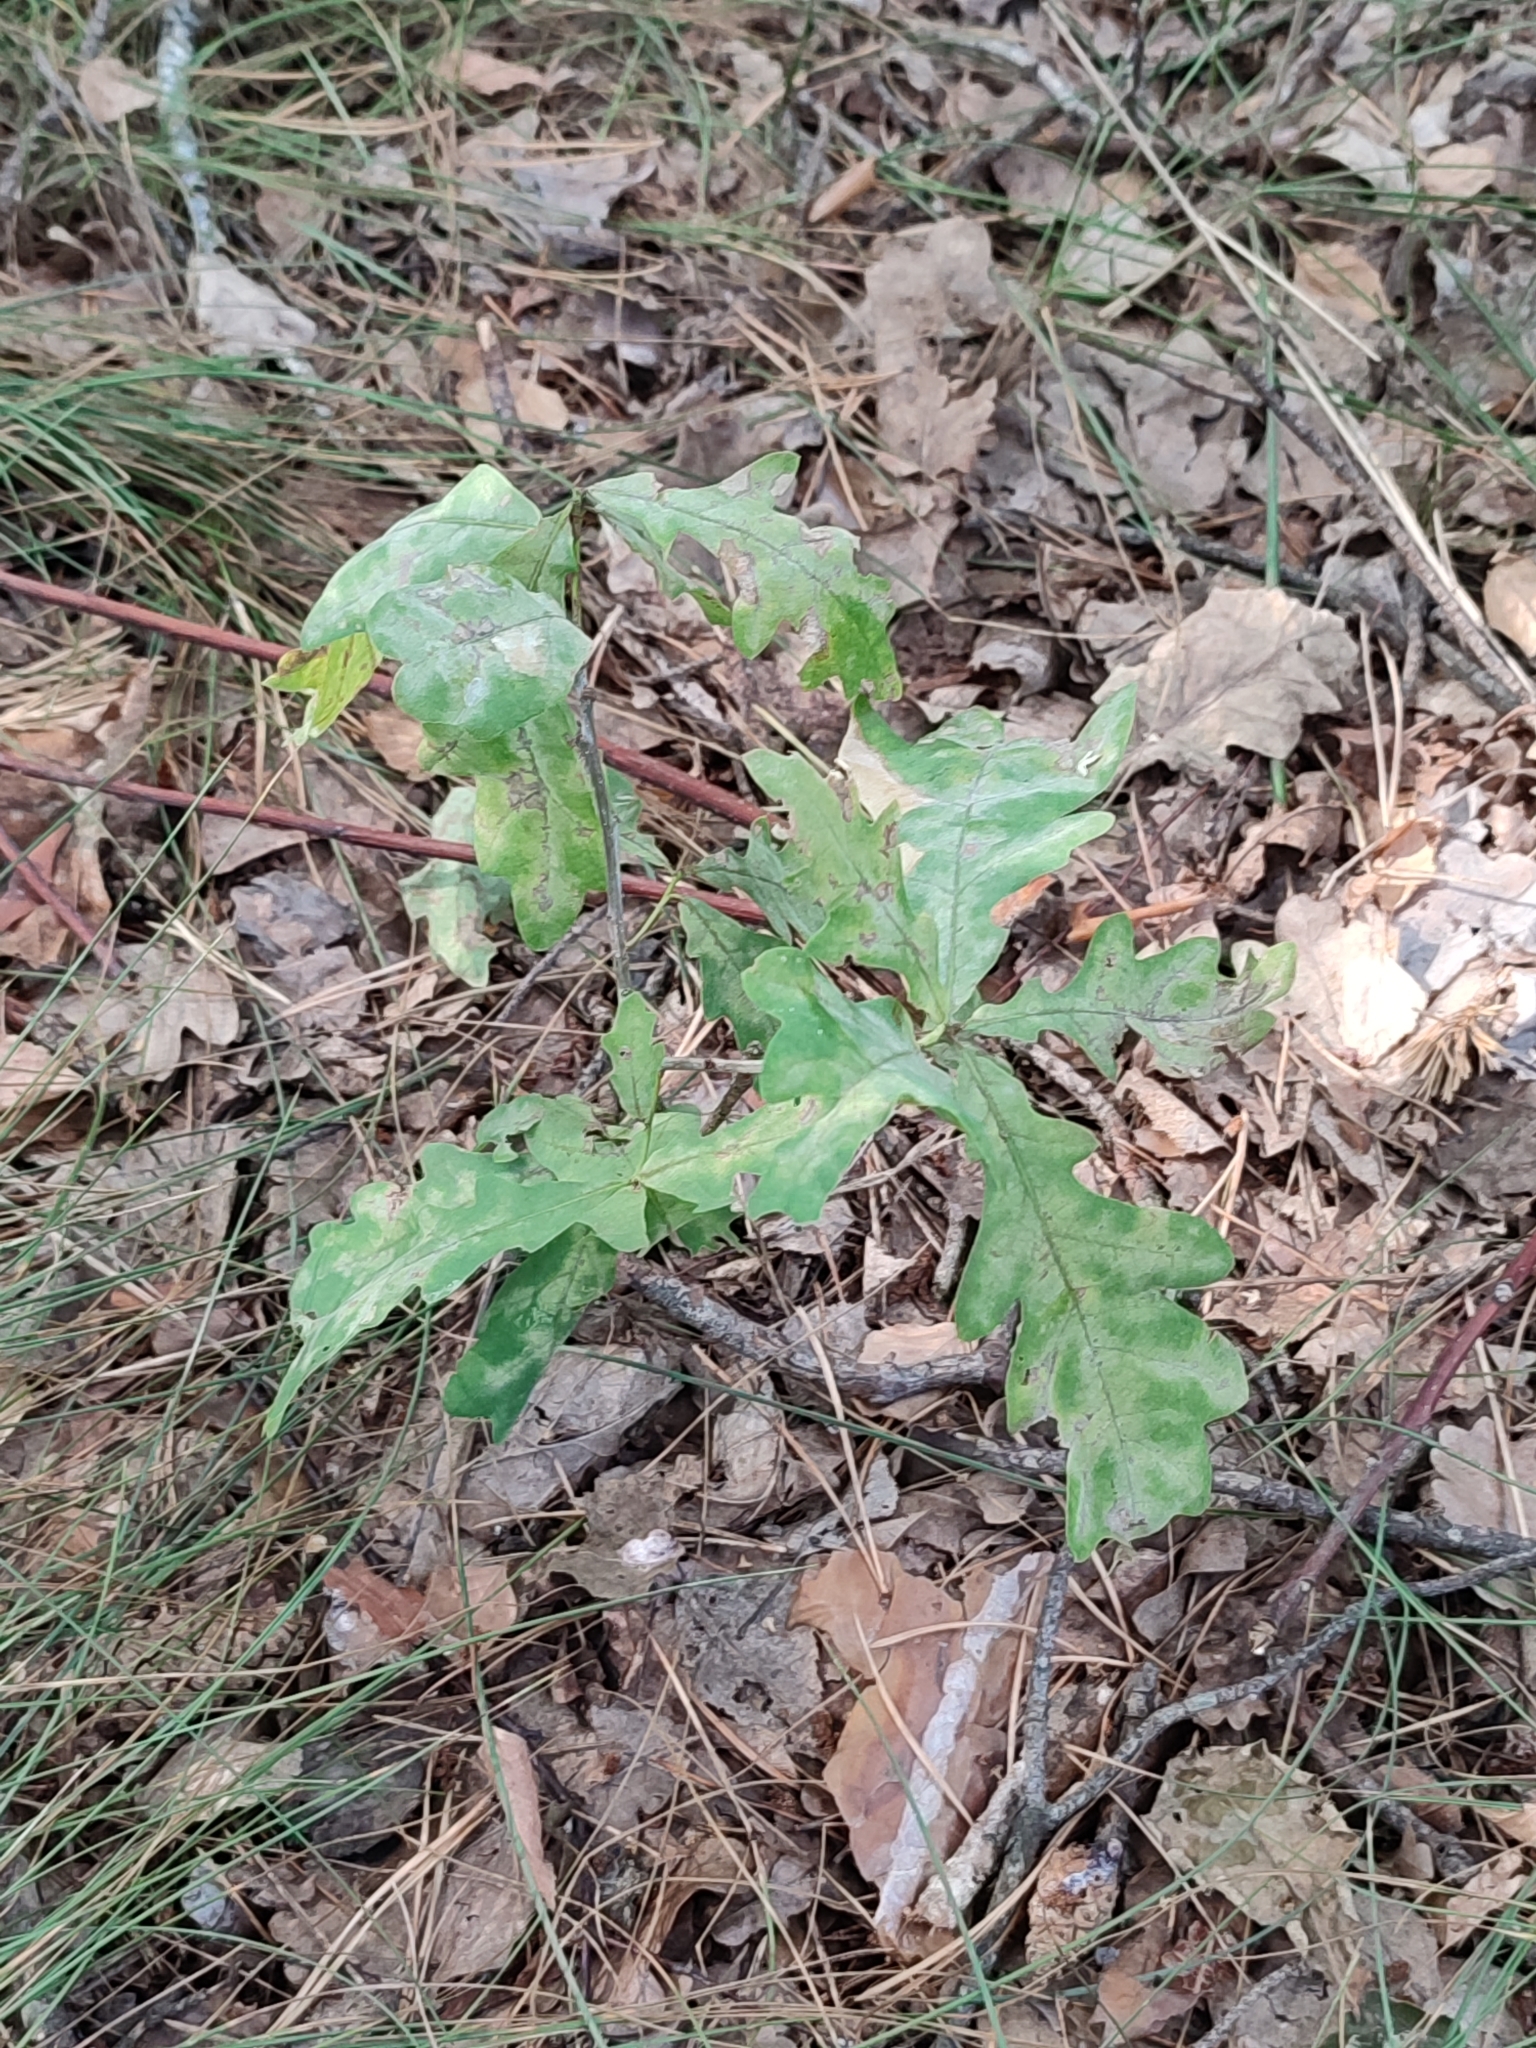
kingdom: Plantae
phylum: Tracheophyta
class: Magnoliopsida
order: Fagales
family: Fagaceae
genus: Quercus
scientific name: Quercus robur
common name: Pedunculate oak
